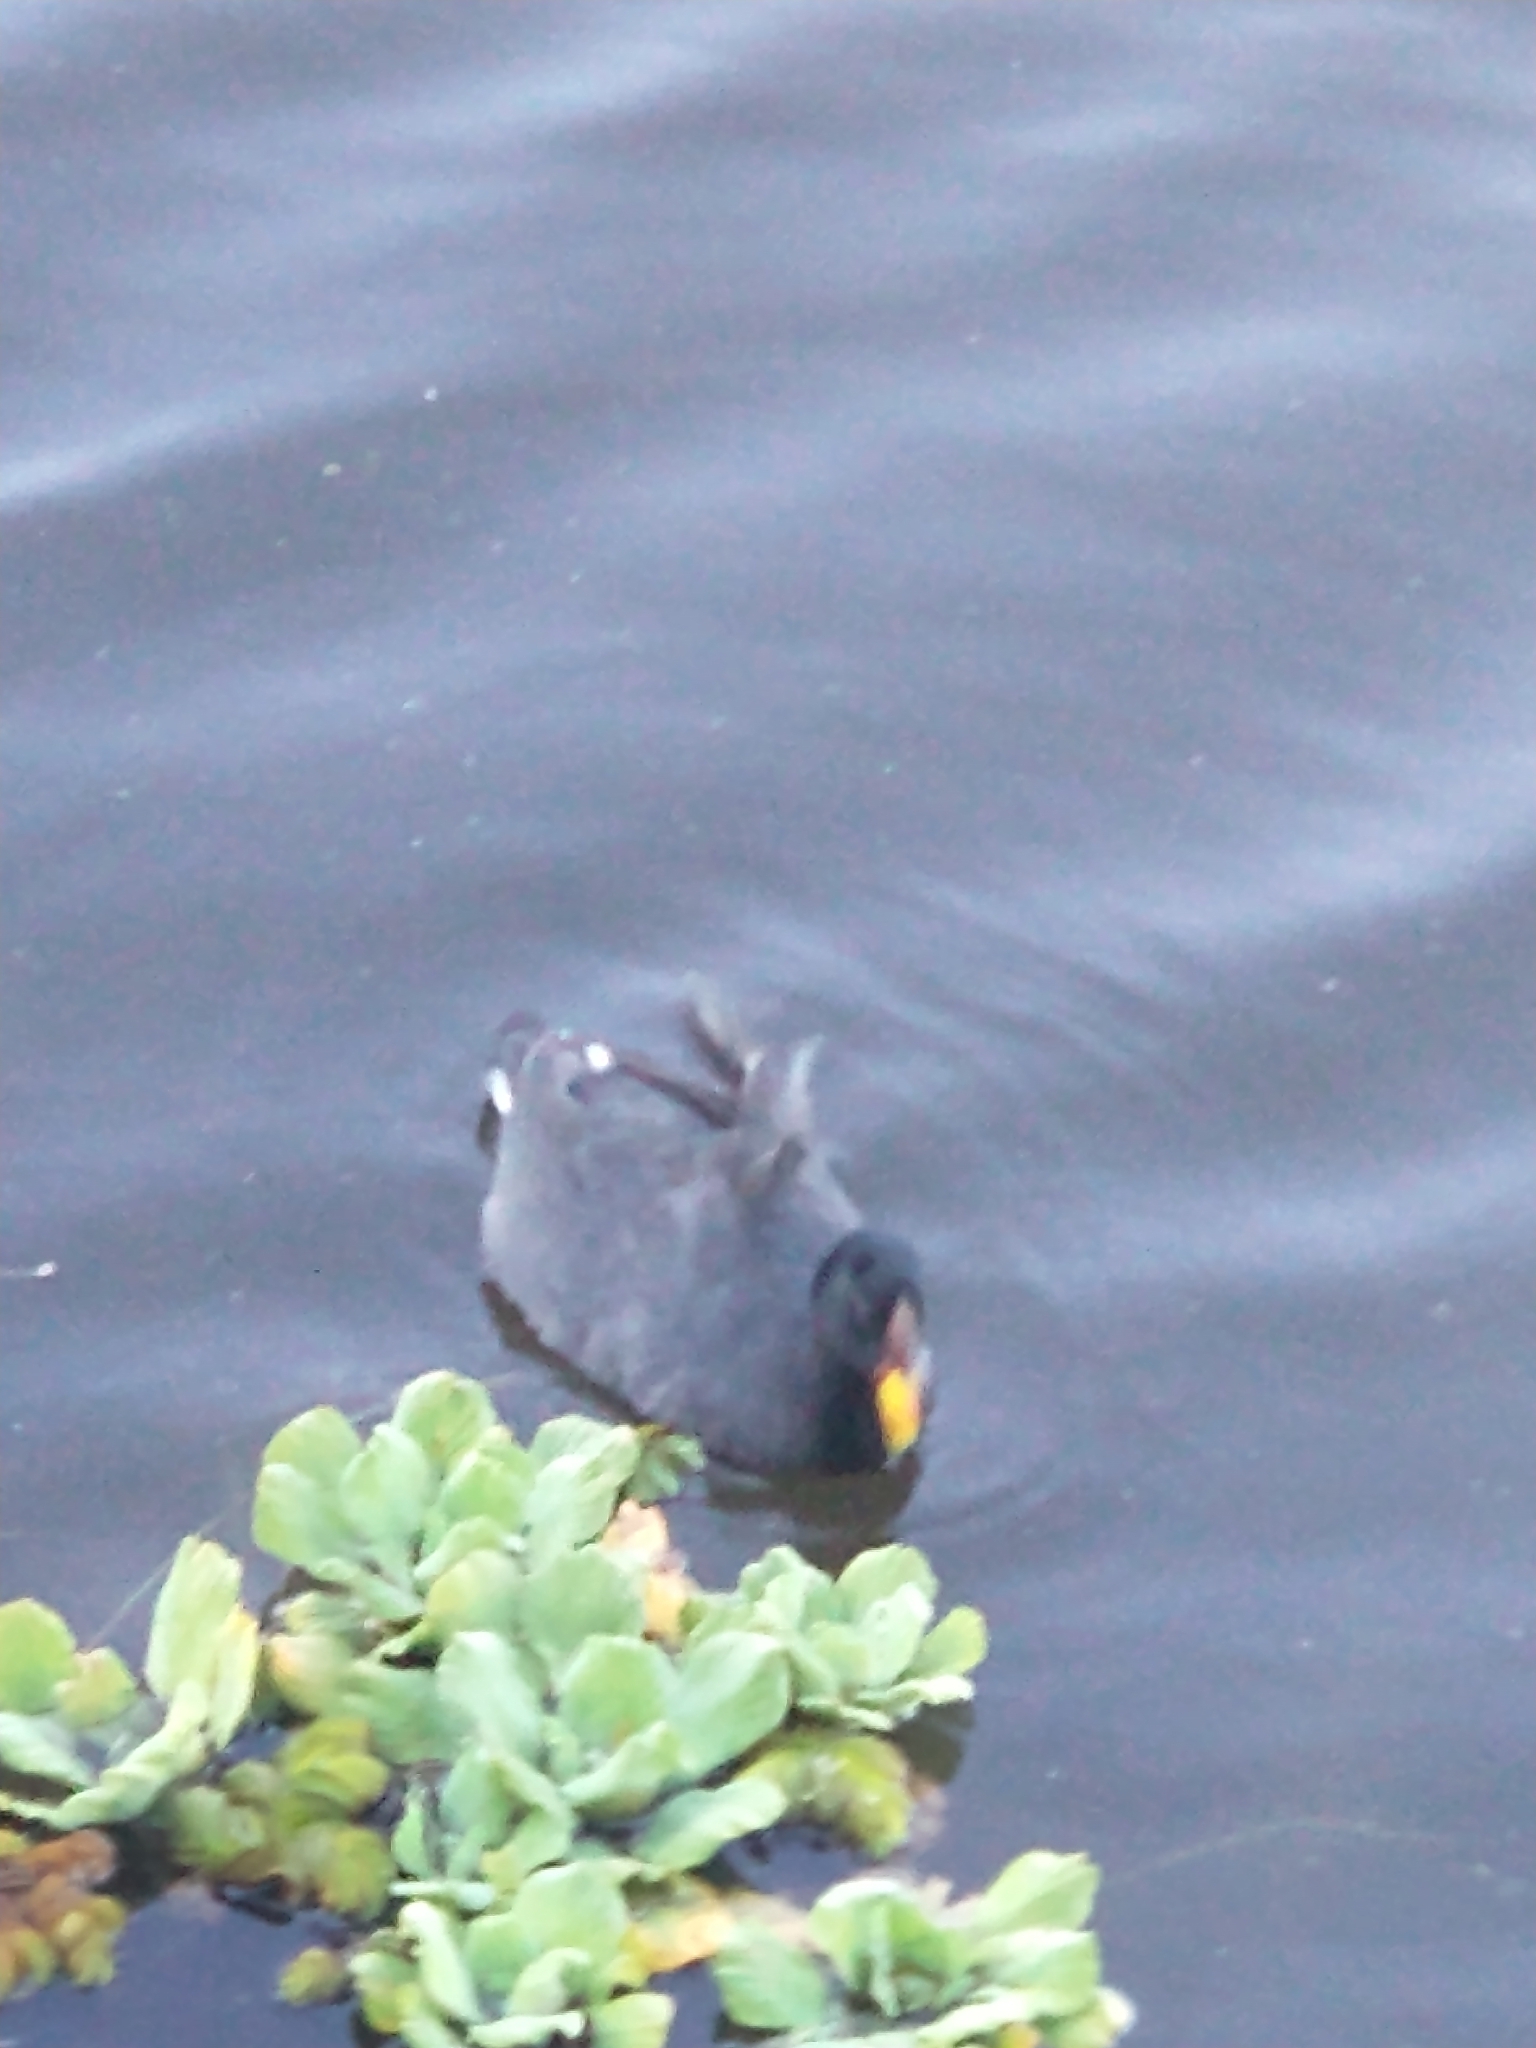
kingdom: Animalia
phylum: Chordata
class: Aves
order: Gruiformes
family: Rallidae
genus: Fulica
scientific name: Fulica rufifrons
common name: Red-fronted coot
